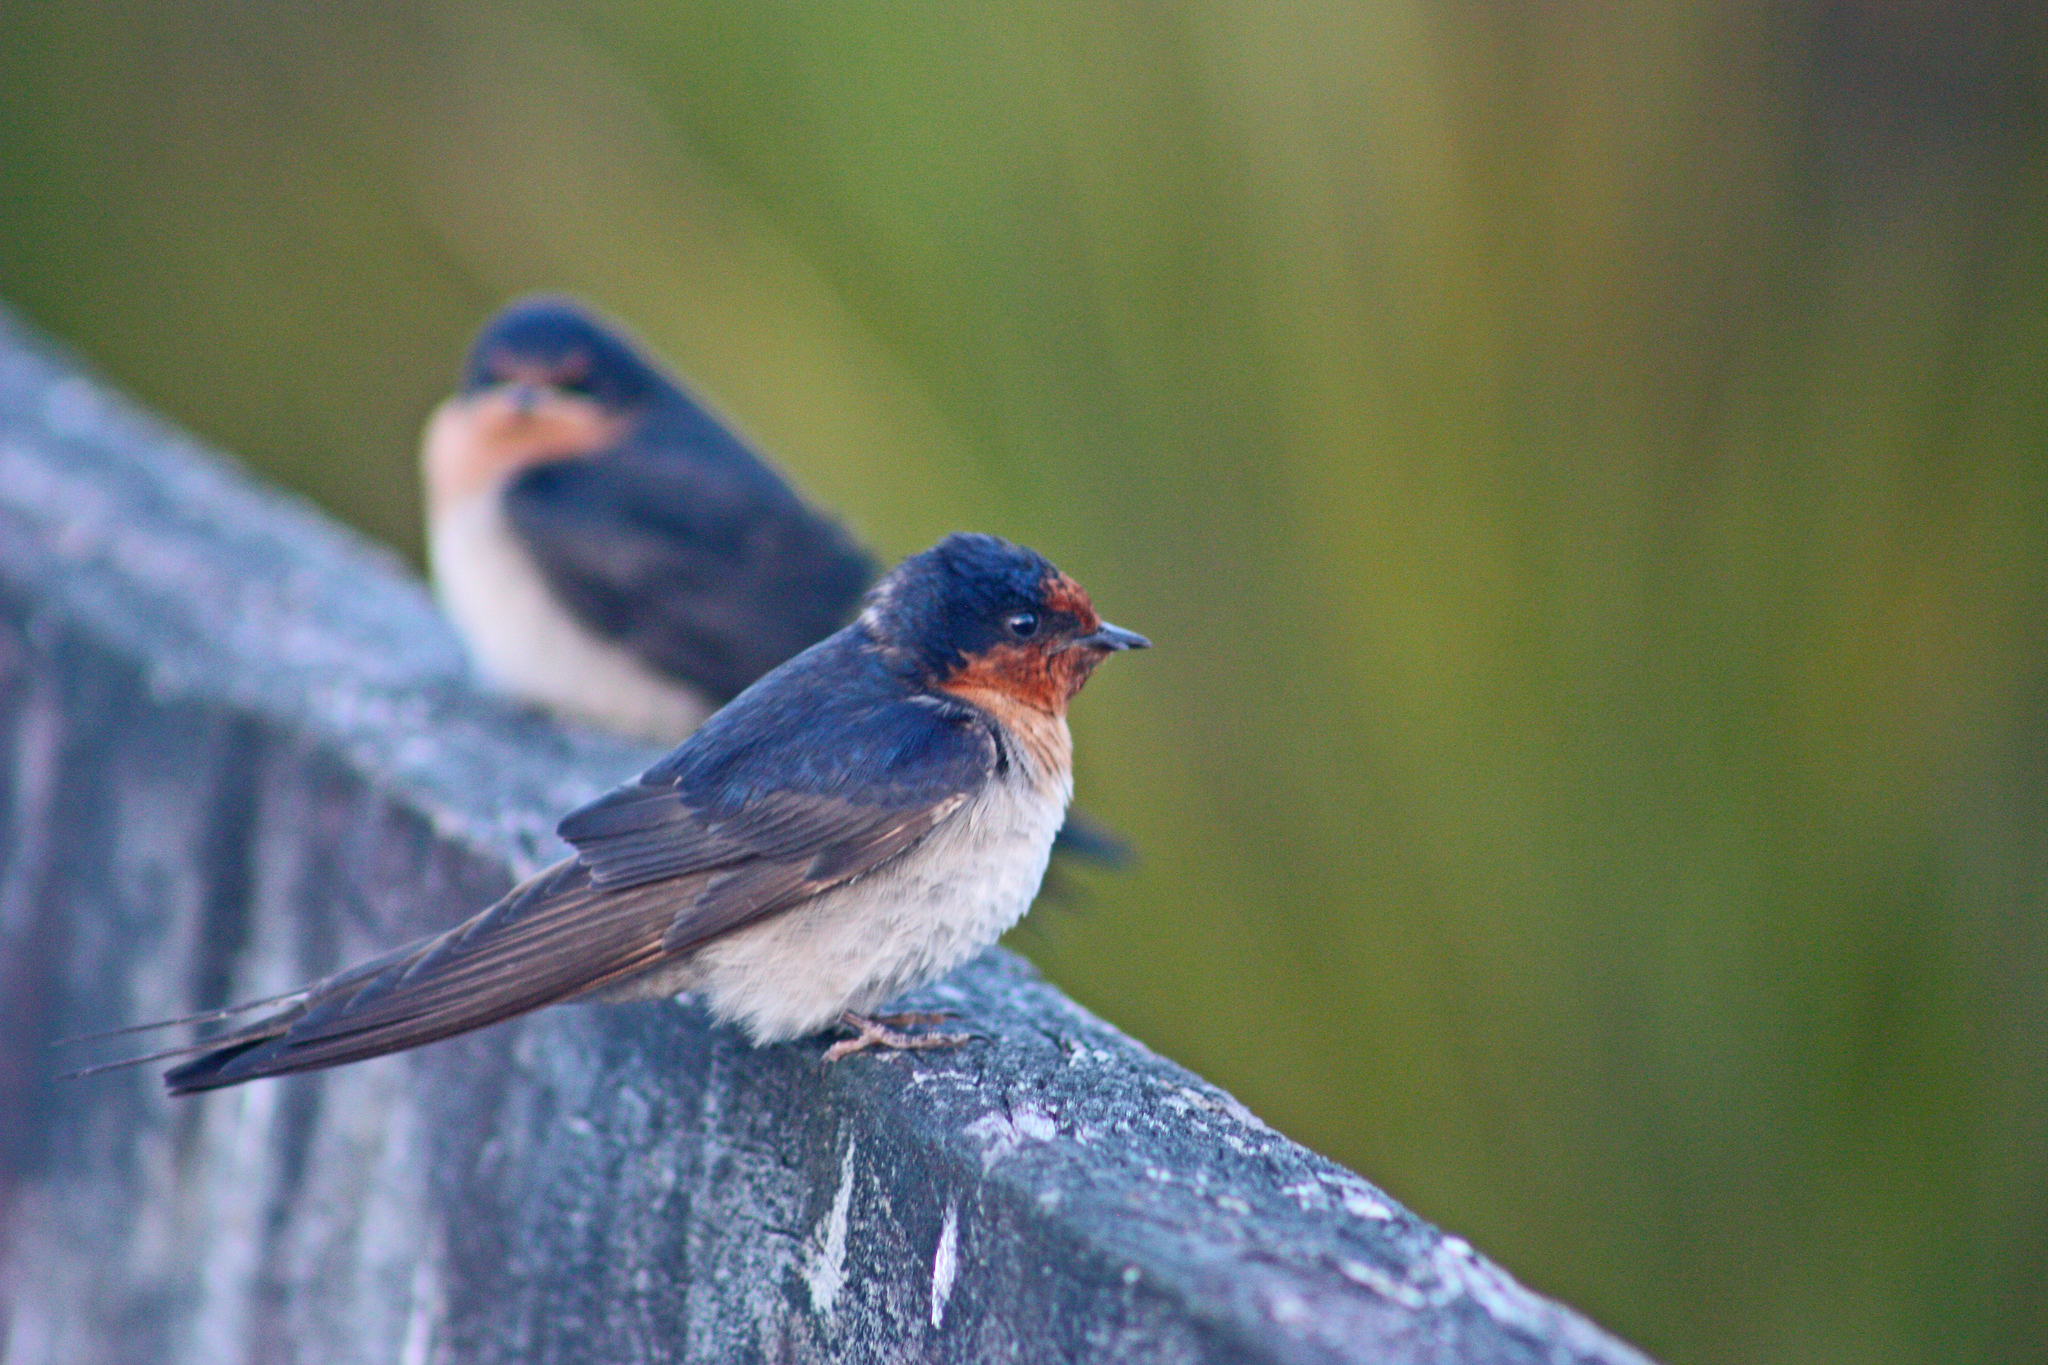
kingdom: Animalia
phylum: Chordata
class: Aves
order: Passeriformes
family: Hirundinidae
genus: Hirundo
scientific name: Hirundo neoxena
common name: Welcome swallow
